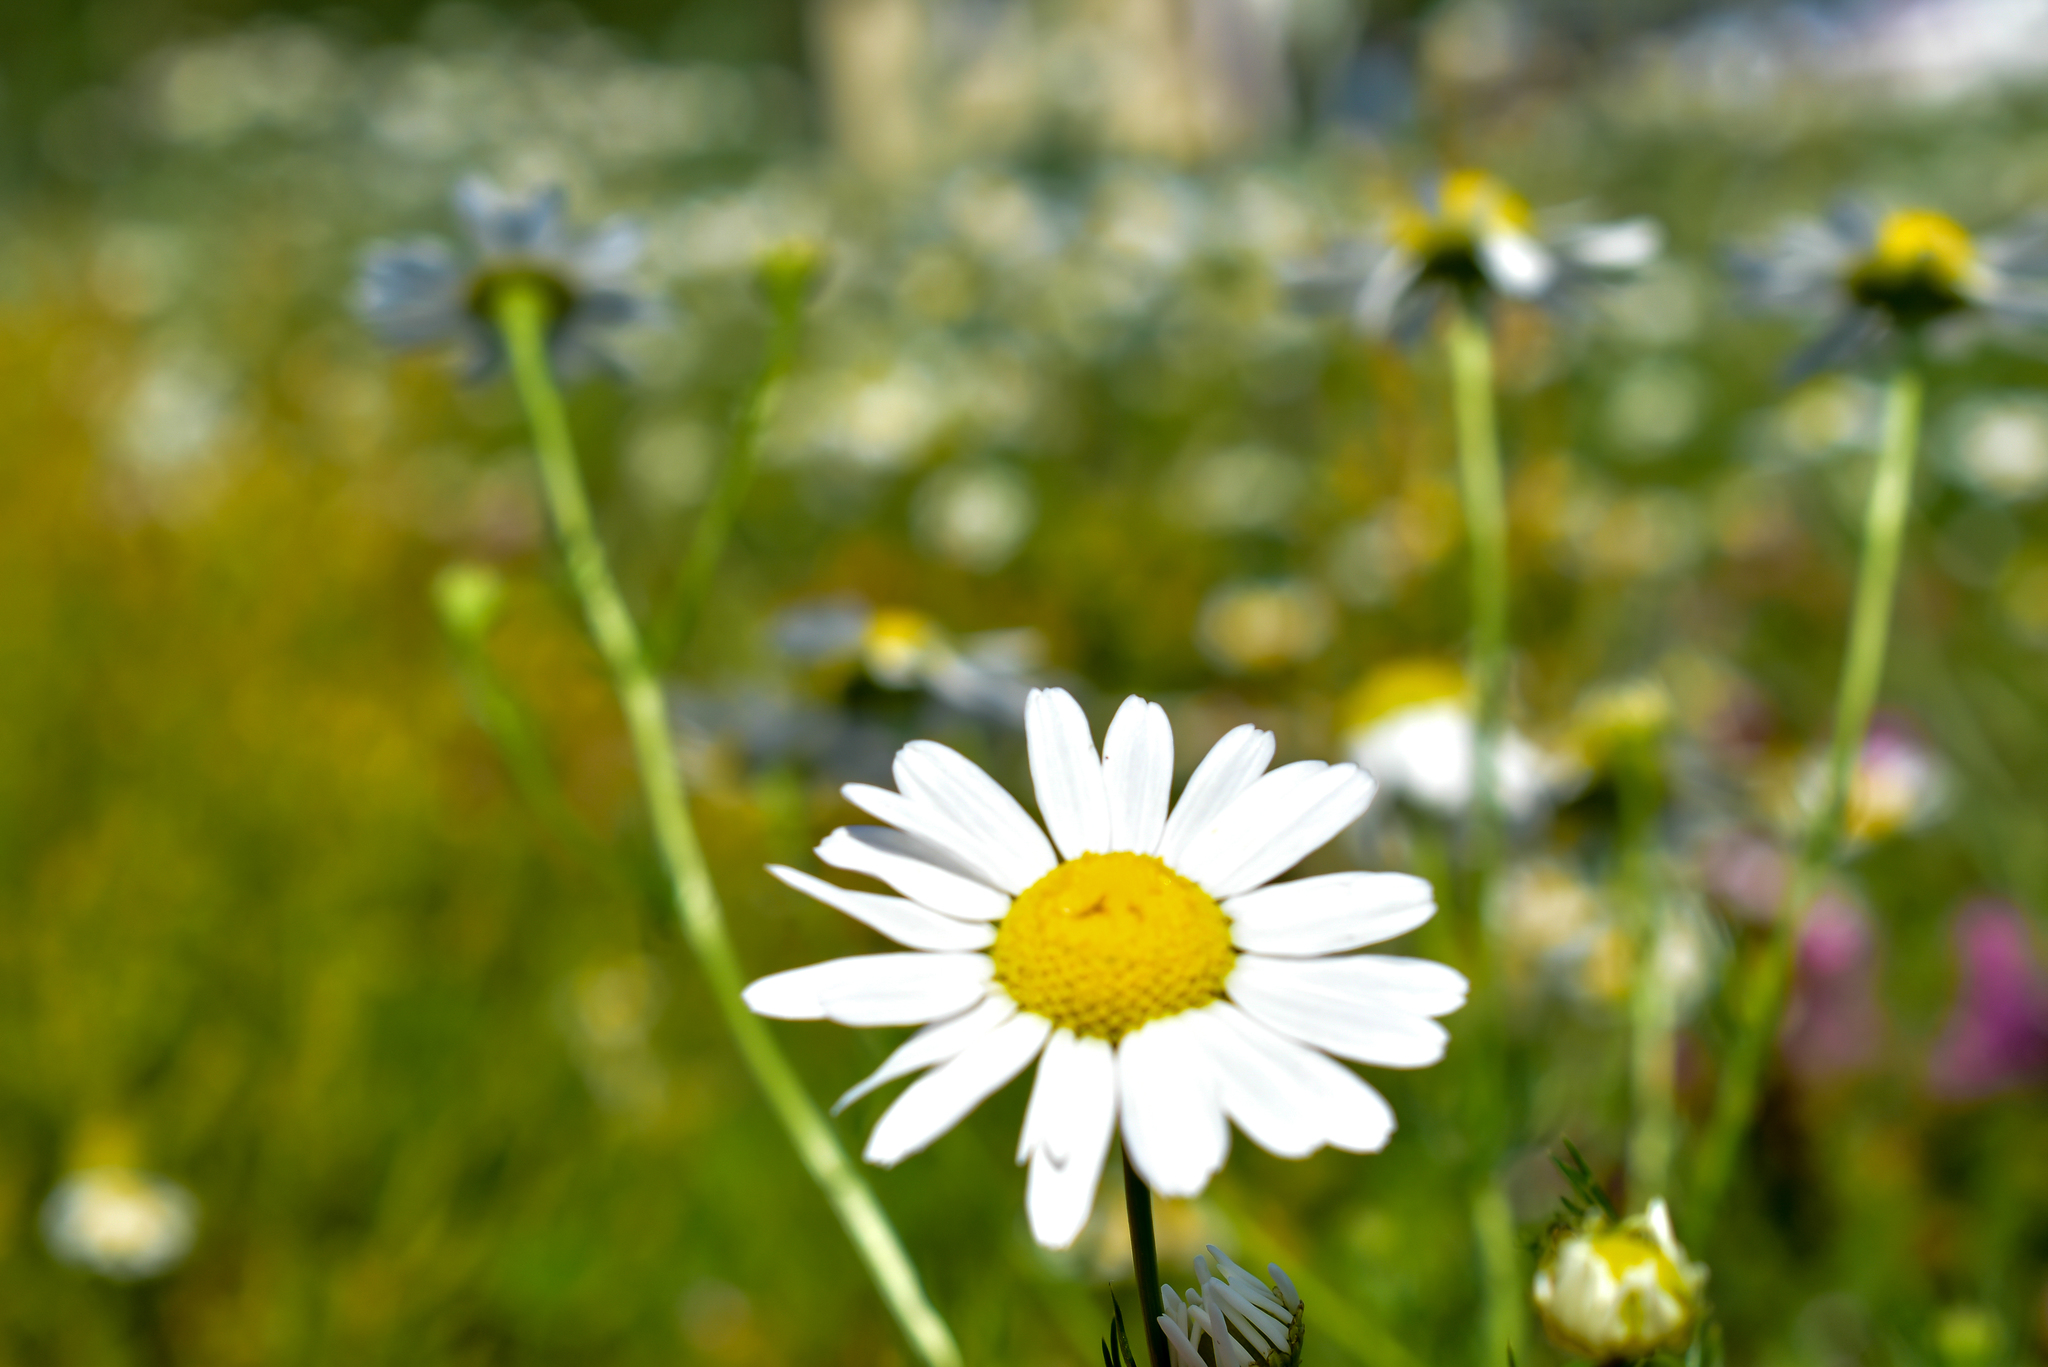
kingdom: Plantae
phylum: Tracheophyta
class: Magnoliopsida
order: Asterales
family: Asteraceae
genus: Tripleurospermum
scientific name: Tripleurospermum inodorum
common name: Scentless mayweed
